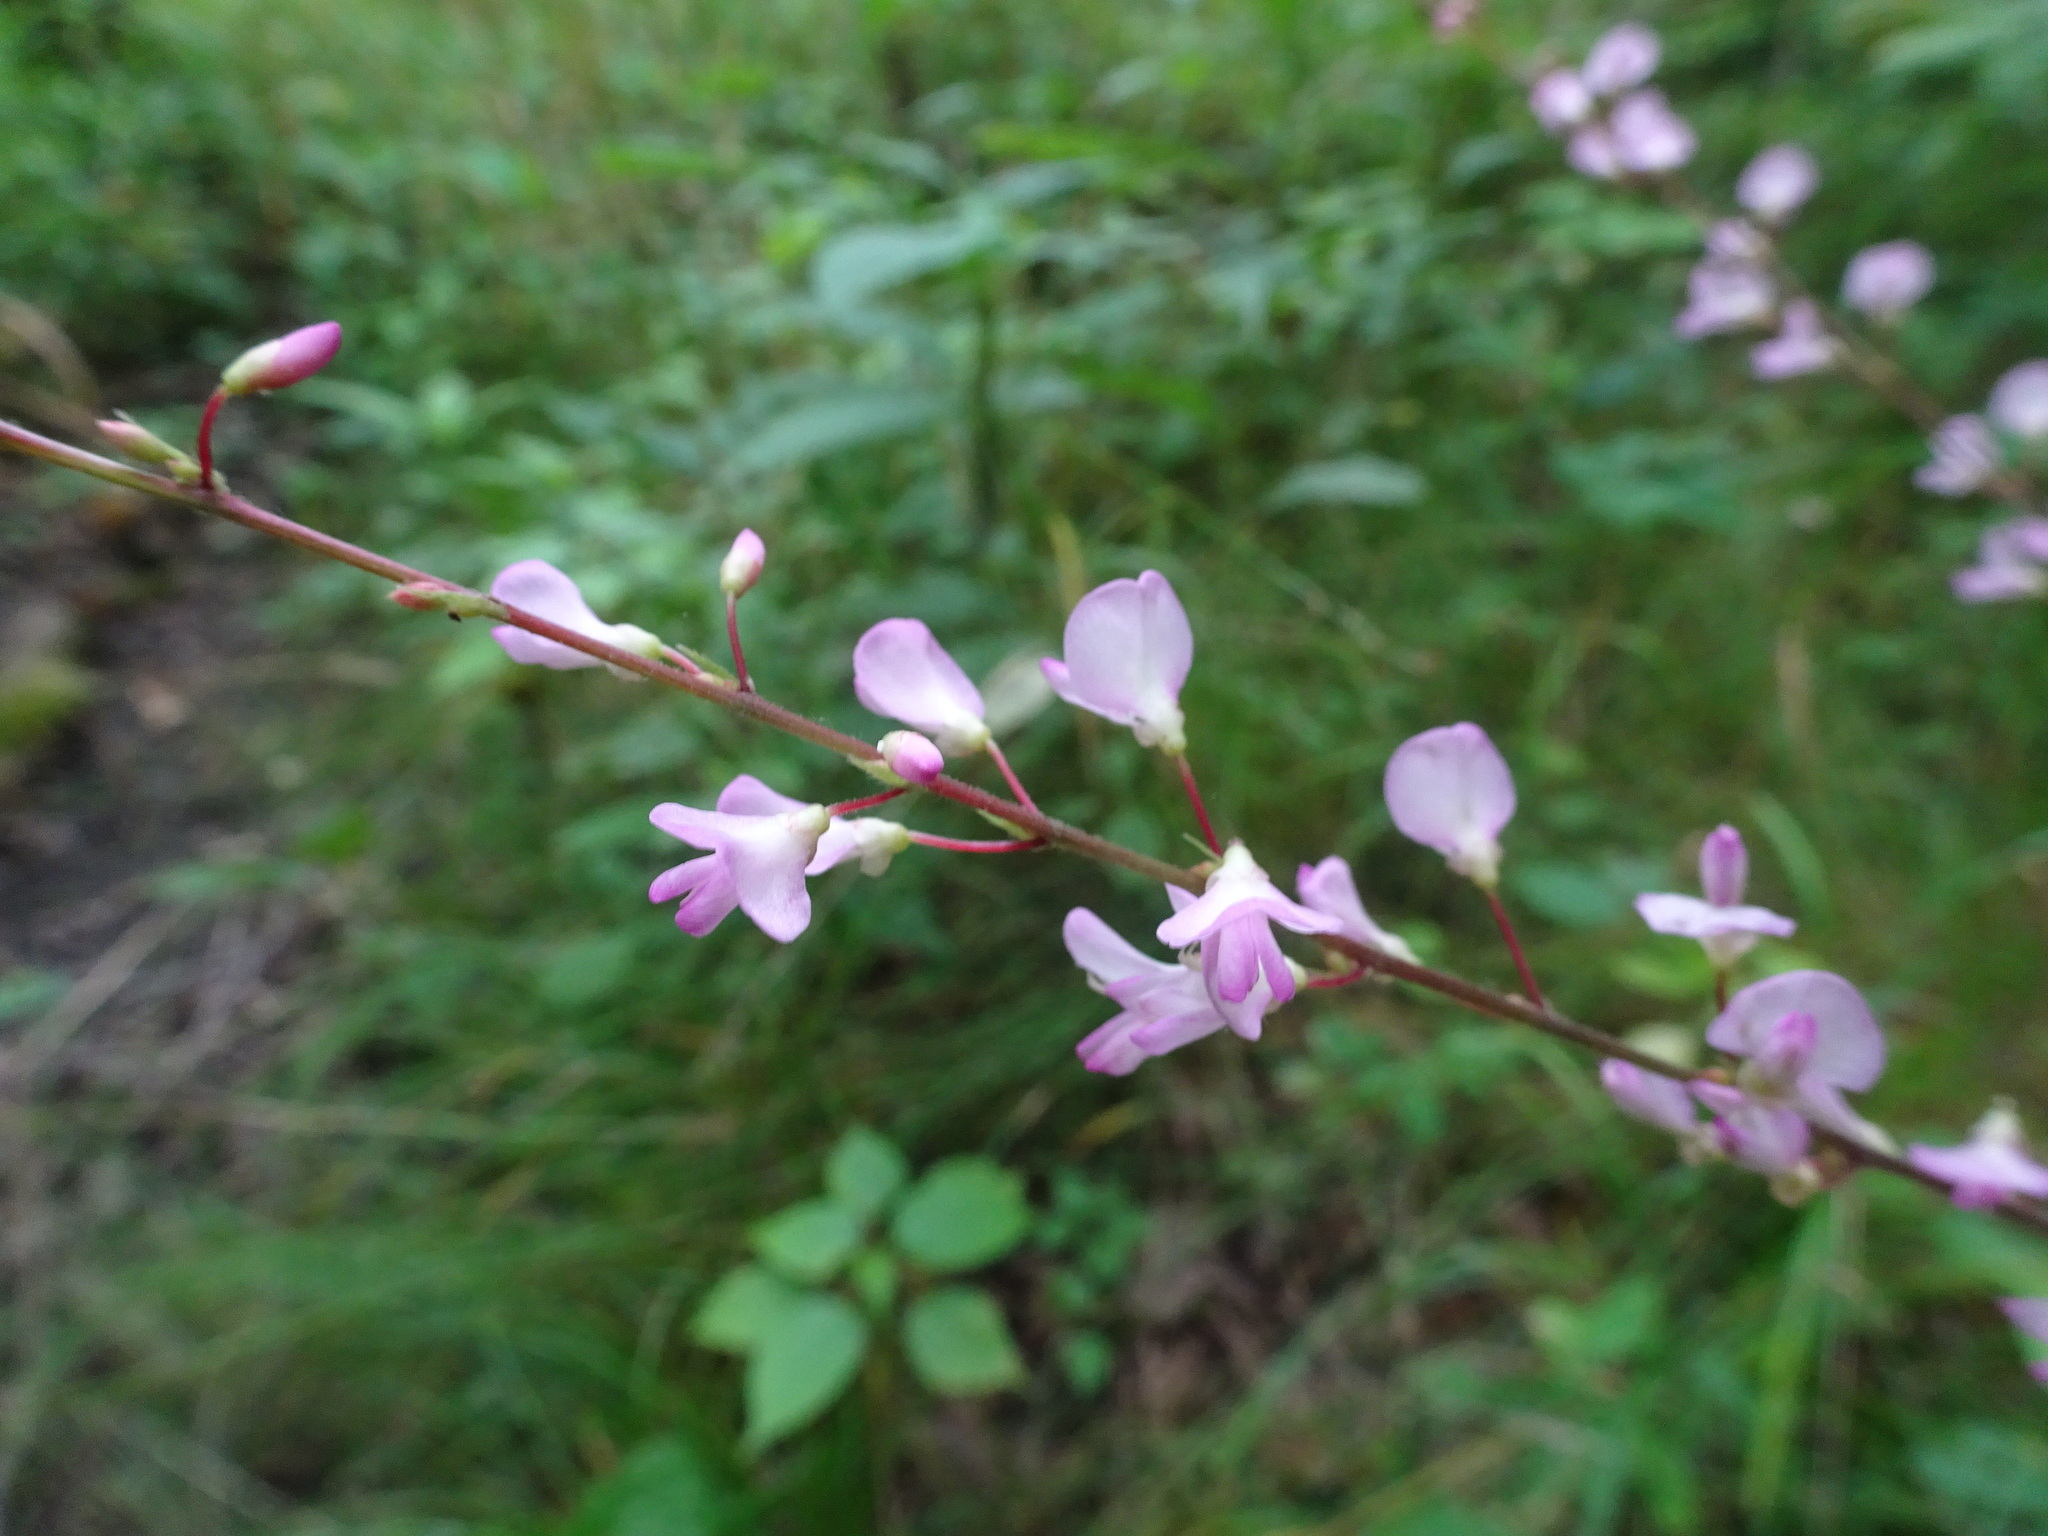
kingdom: Plantae
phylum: Tracheophyta
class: Magnoliopsida
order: Fabales
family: Fabaceae
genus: Hylodesmum
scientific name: Hylodesmum glutinosum
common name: Clustered-leaved tick-trefoil
